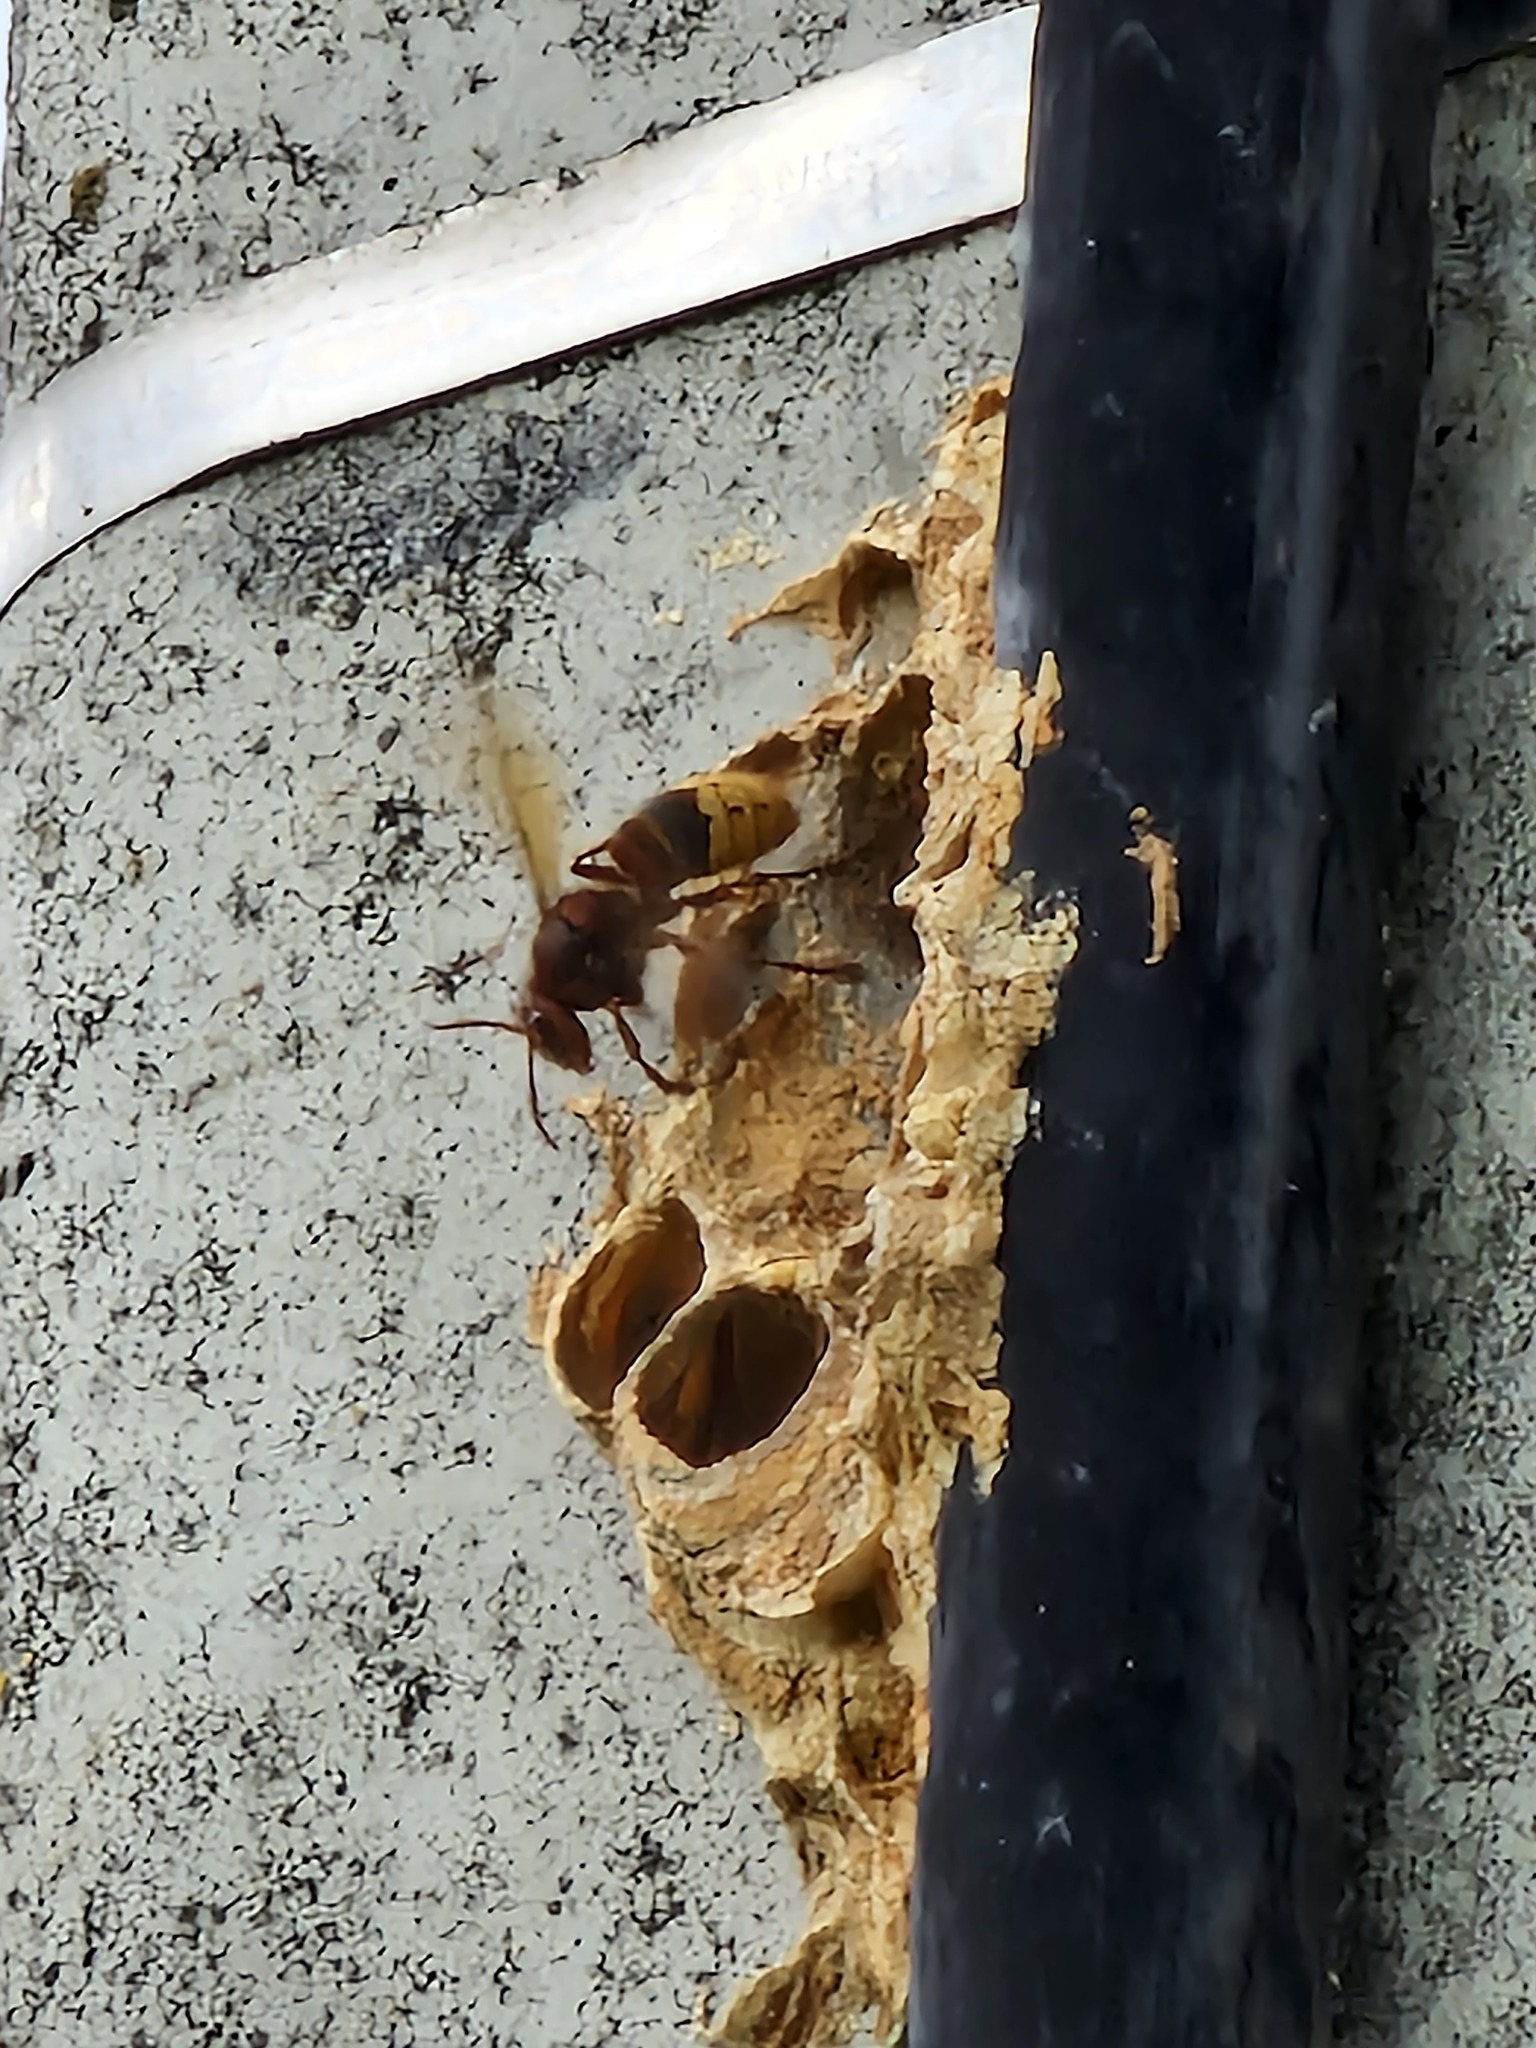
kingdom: Animalia
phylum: Arthropoda
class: Insecta
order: Hymenoptera
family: Vespidae
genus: Vespa
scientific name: Vespa crabro
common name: Hornet
